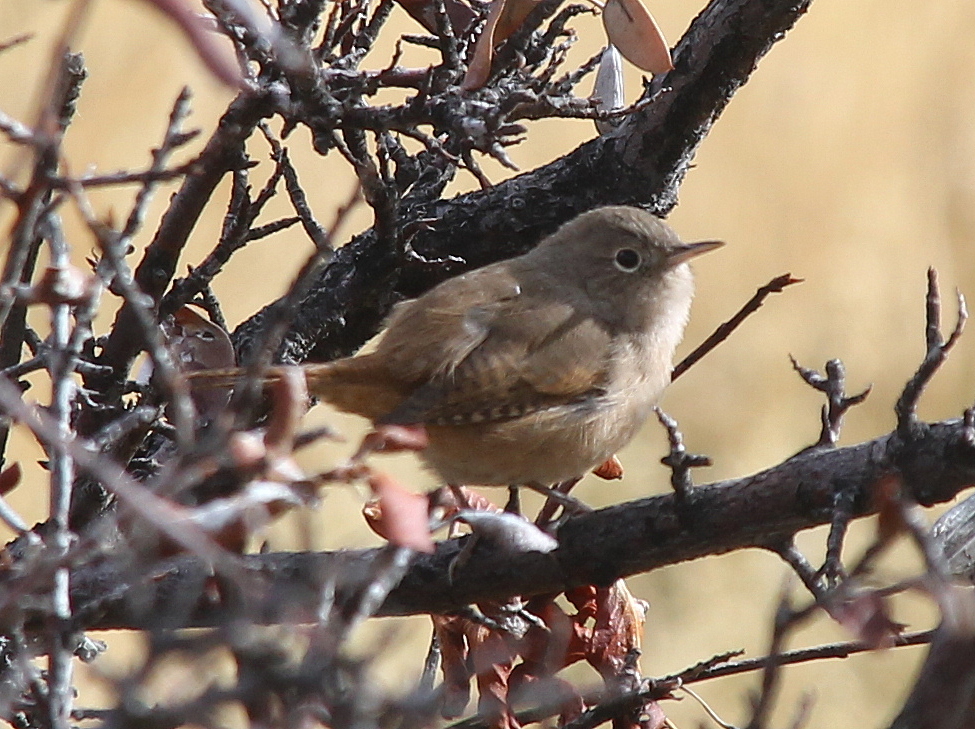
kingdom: Animalia
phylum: Chordata
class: Aves
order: Passeriformes
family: Troglodytidae
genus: Troglodytes
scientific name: Troglodytes aedon
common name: House wren
